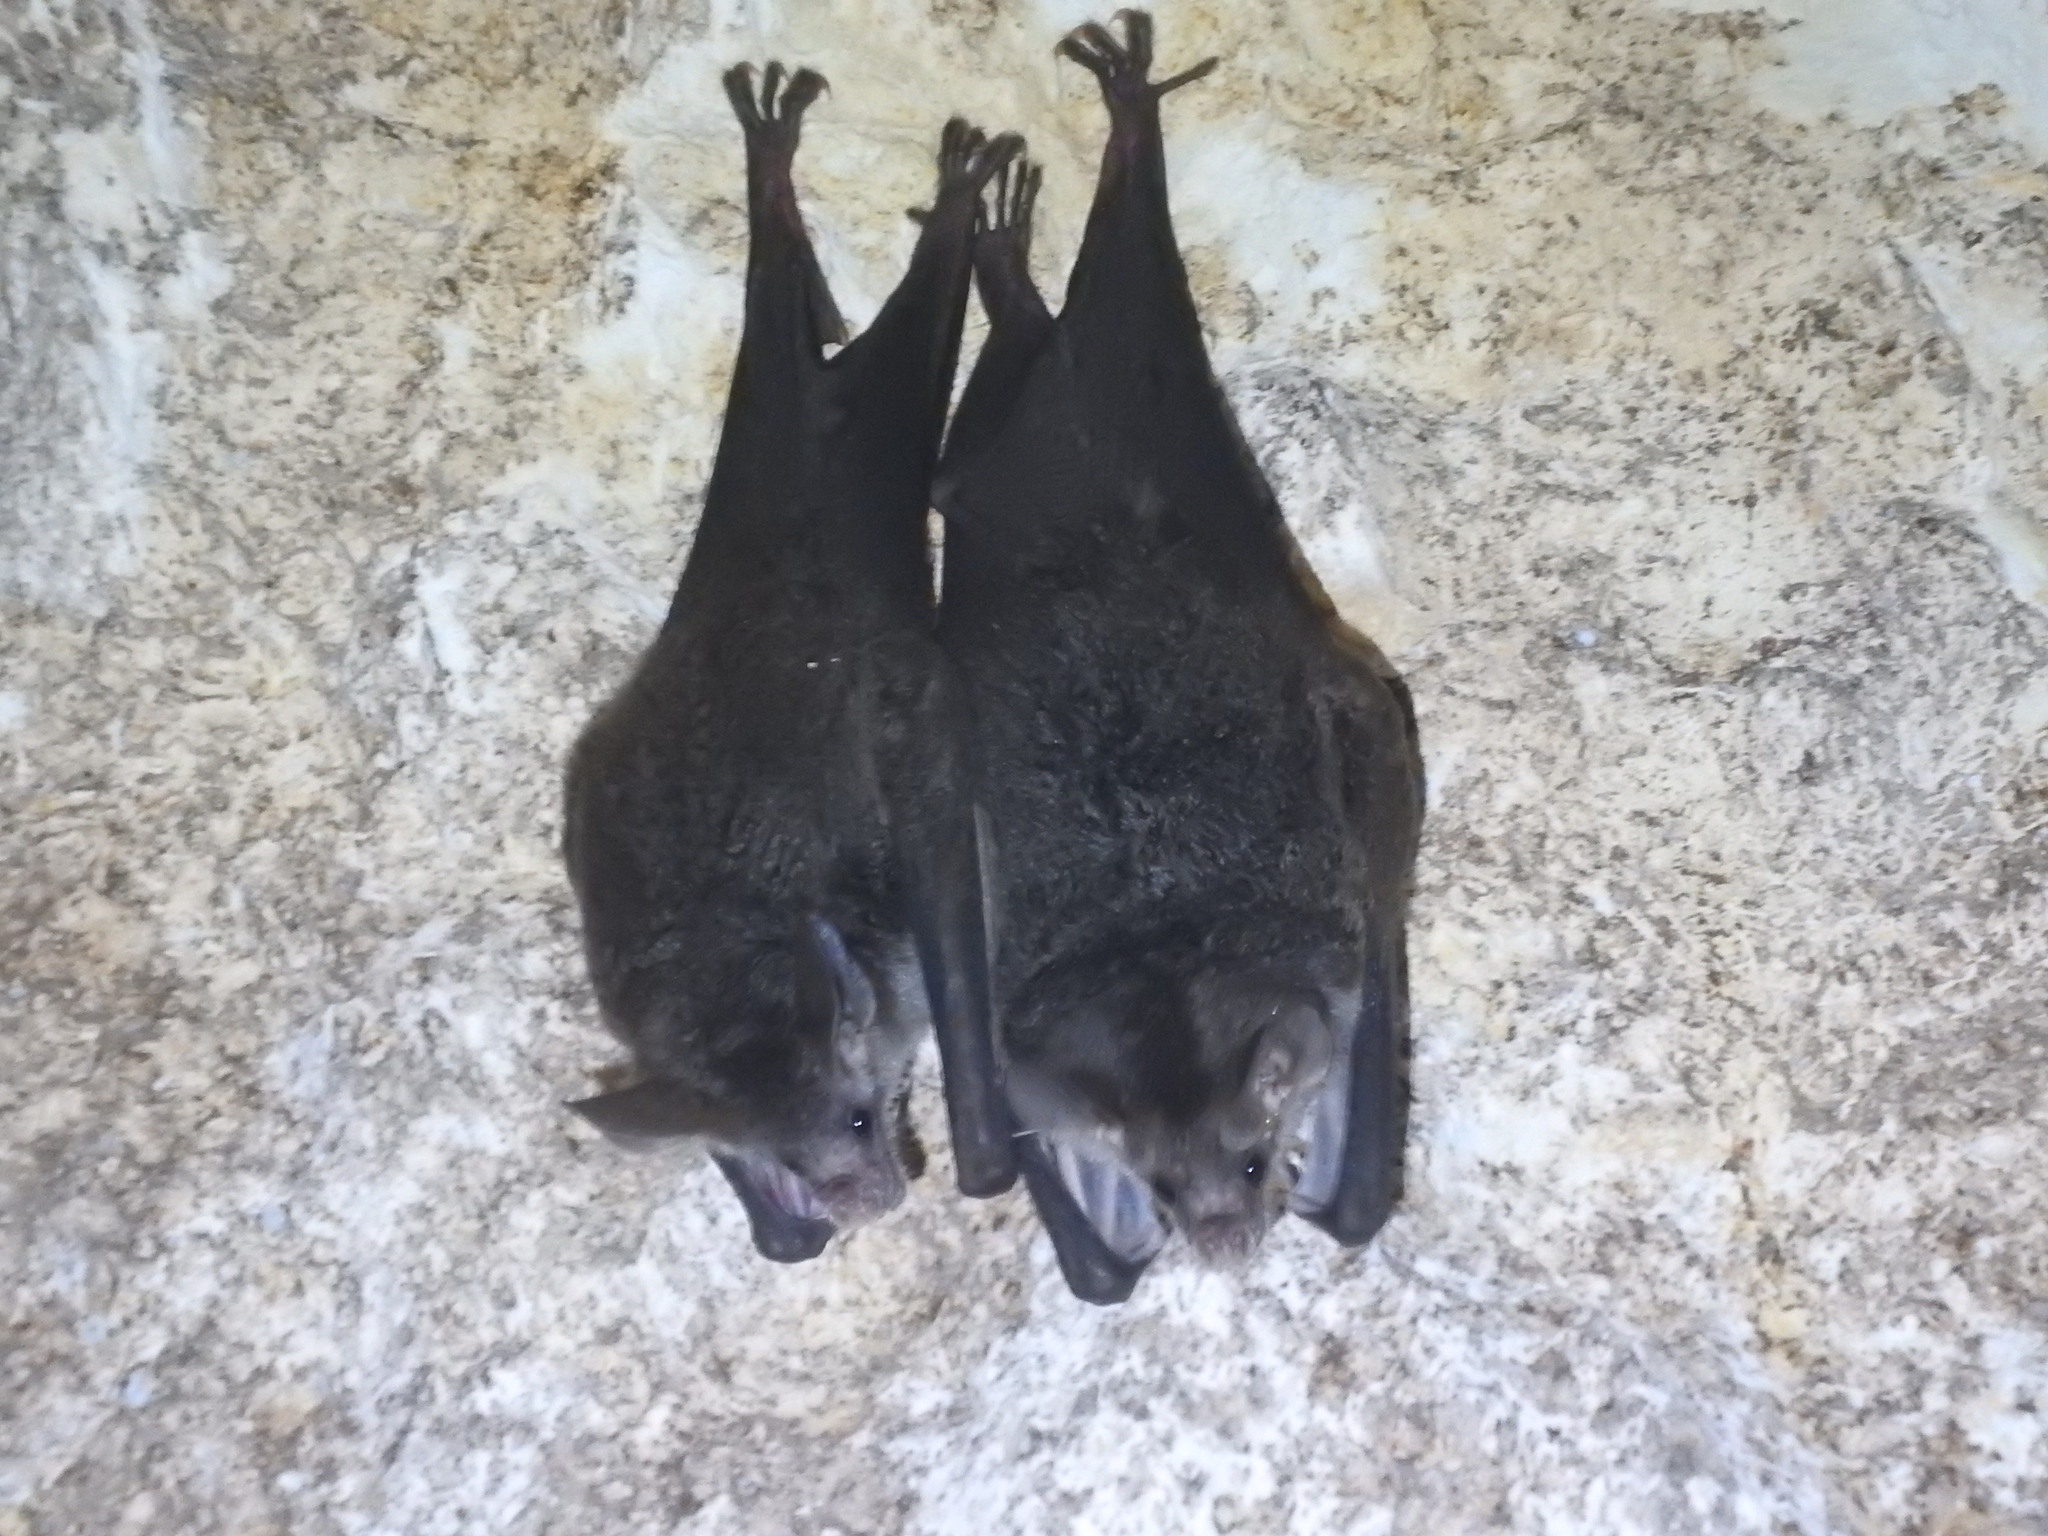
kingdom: Animalia
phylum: Chordata
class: Mammalia
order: Chiroptera
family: Phyllostomidae
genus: Chrotopterus
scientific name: Chrotopterus auritus
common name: Woolly false vampire bat
